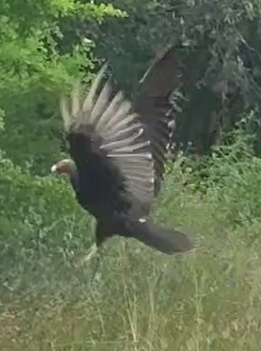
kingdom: Animalia
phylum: Chordata
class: Aves
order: Accipitriformes
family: Cathartidae
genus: Cathartes
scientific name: Cathartes aura
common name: Turkey vulture
